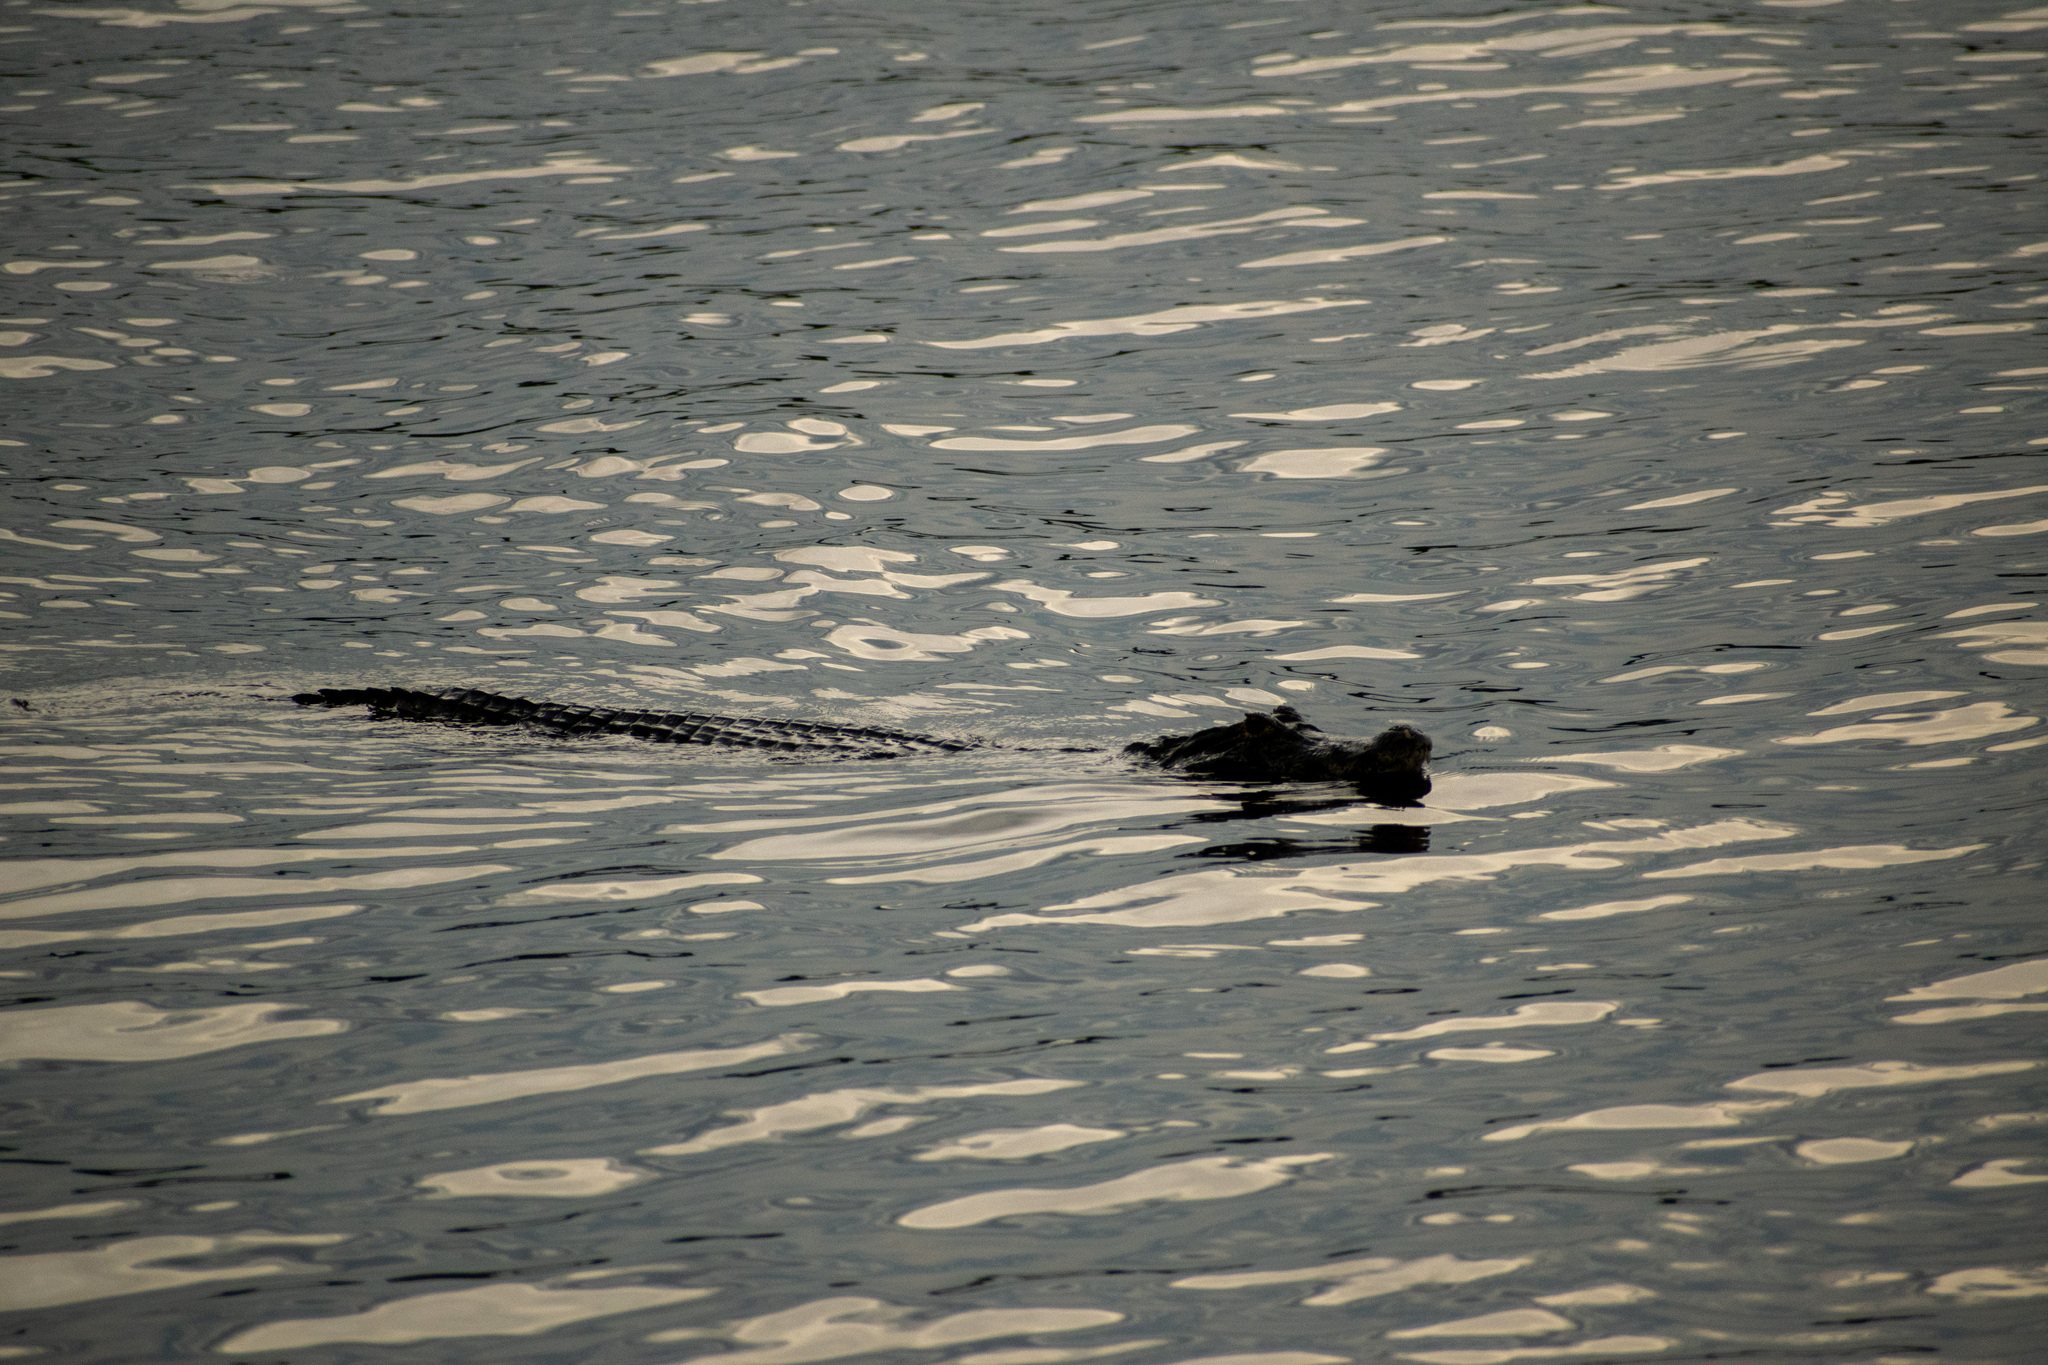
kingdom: Animalia
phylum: Chordata
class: Crocodylia
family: Alligatoridae
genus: Caiman
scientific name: Caiman yacare
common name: Yacare caiman
